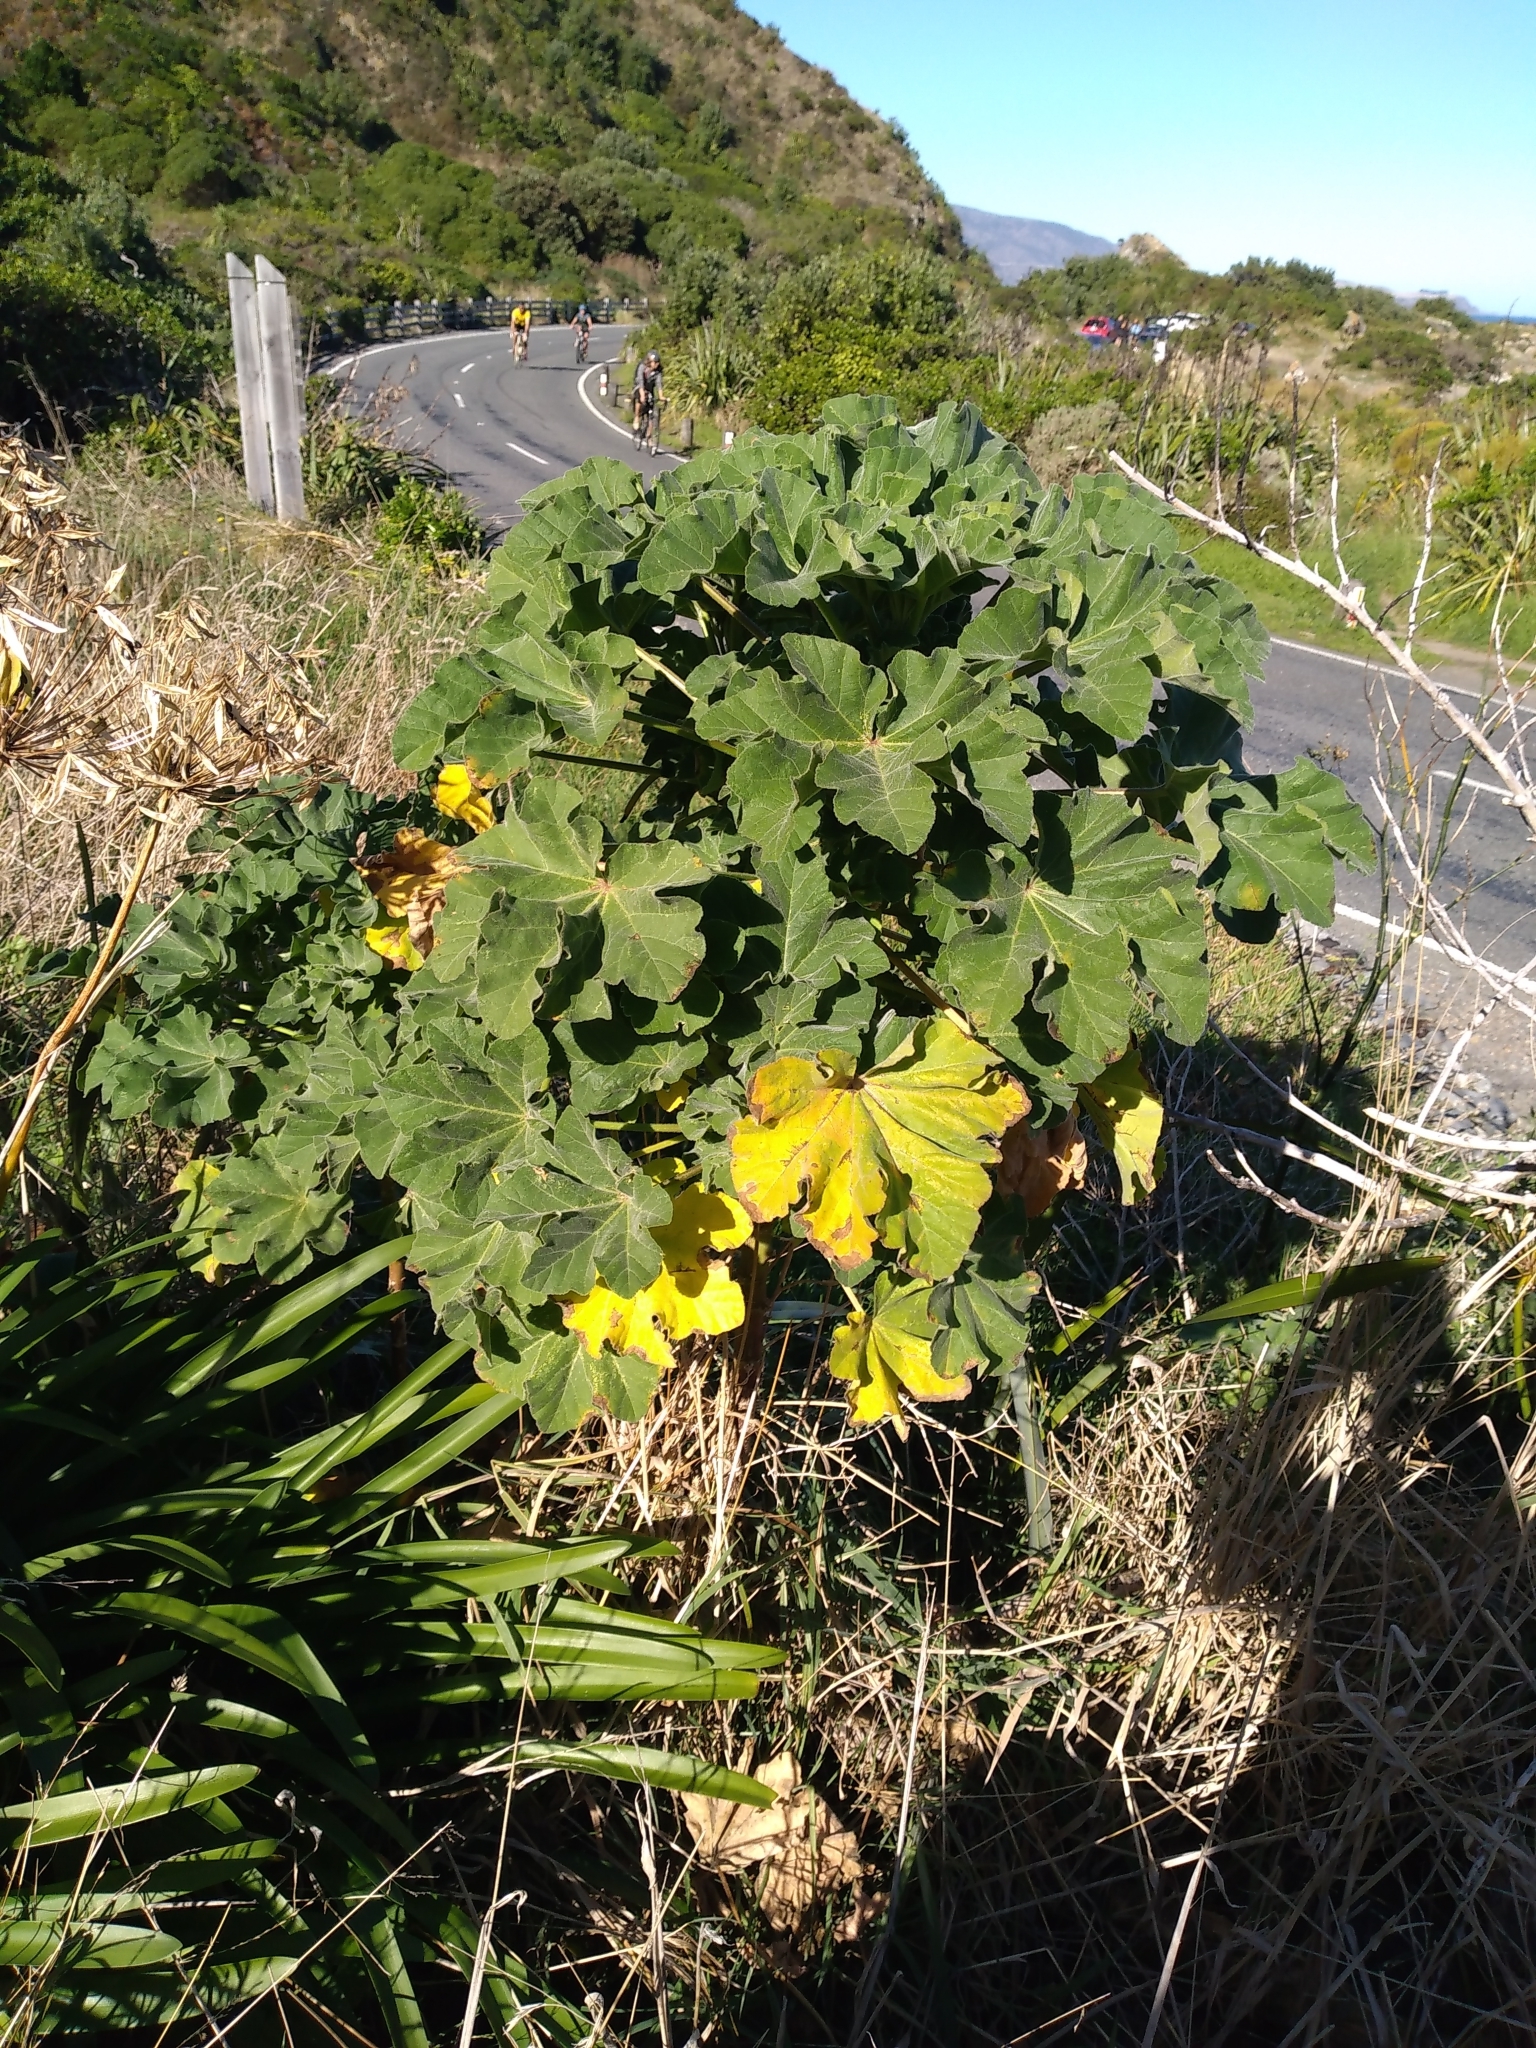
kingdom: Plantae
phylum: Tracheophyta
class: Magnoliopsida
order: Malvales
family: Malvaceae
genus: Malva
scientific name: Malva arborea
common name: Tree mallow
